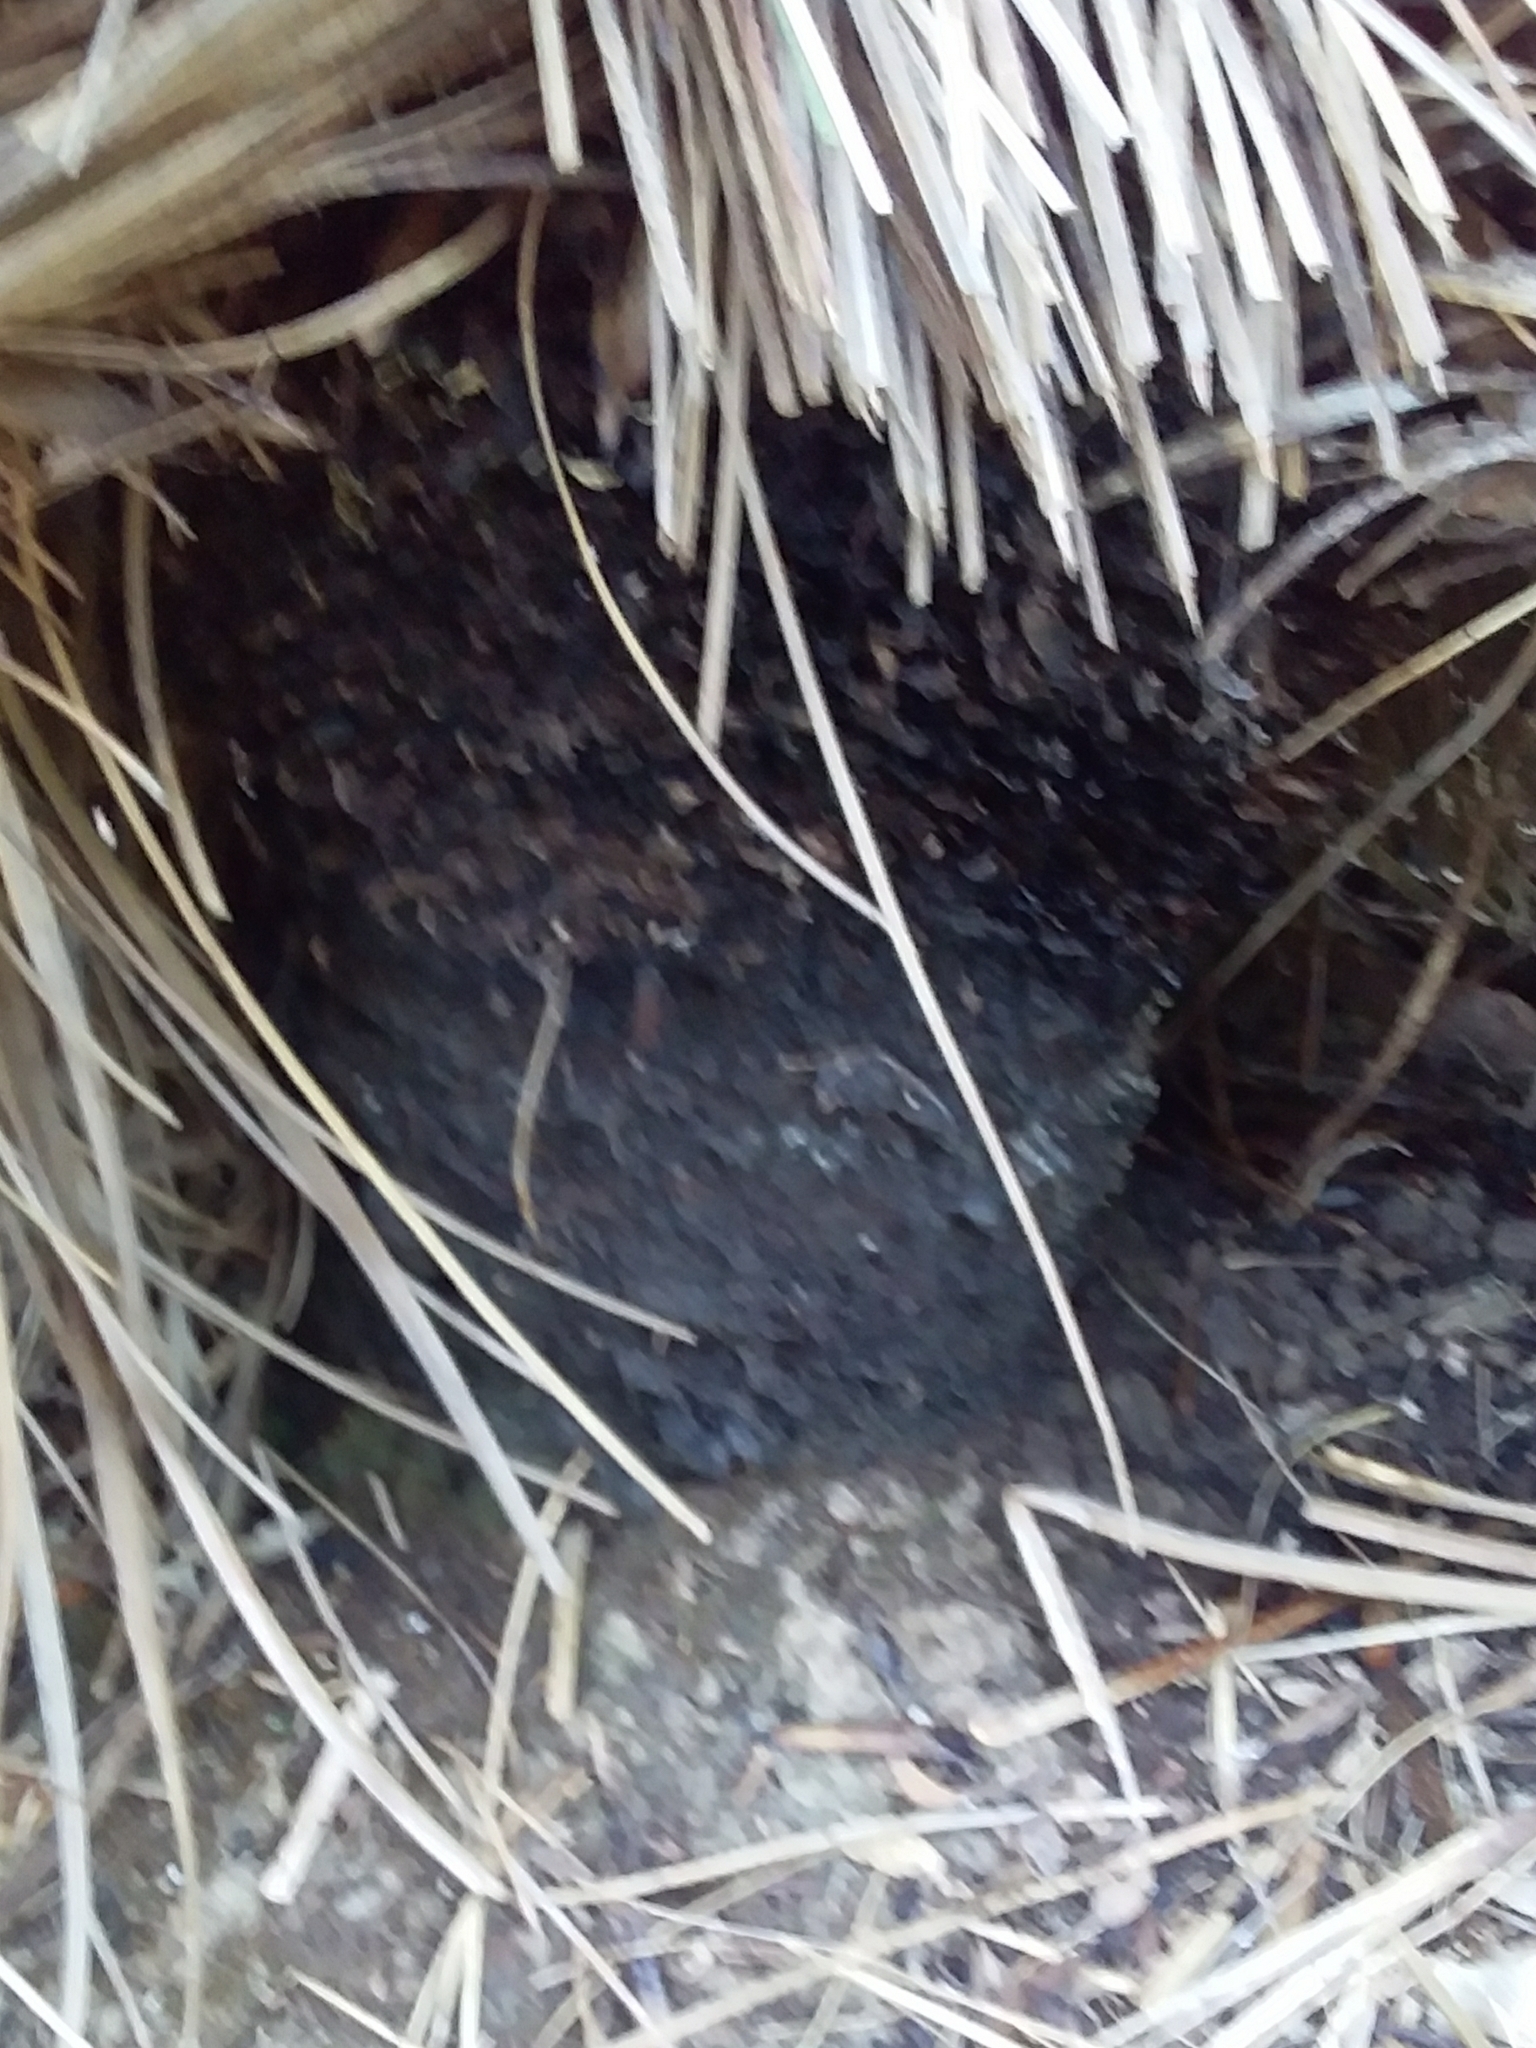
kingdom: Plantae
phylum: Tracheophyta
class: Liliopsida
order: Asparagales
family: Asphodelaceae
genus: Xanthorrhoea
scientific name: Xanthorrhoea semiplana
